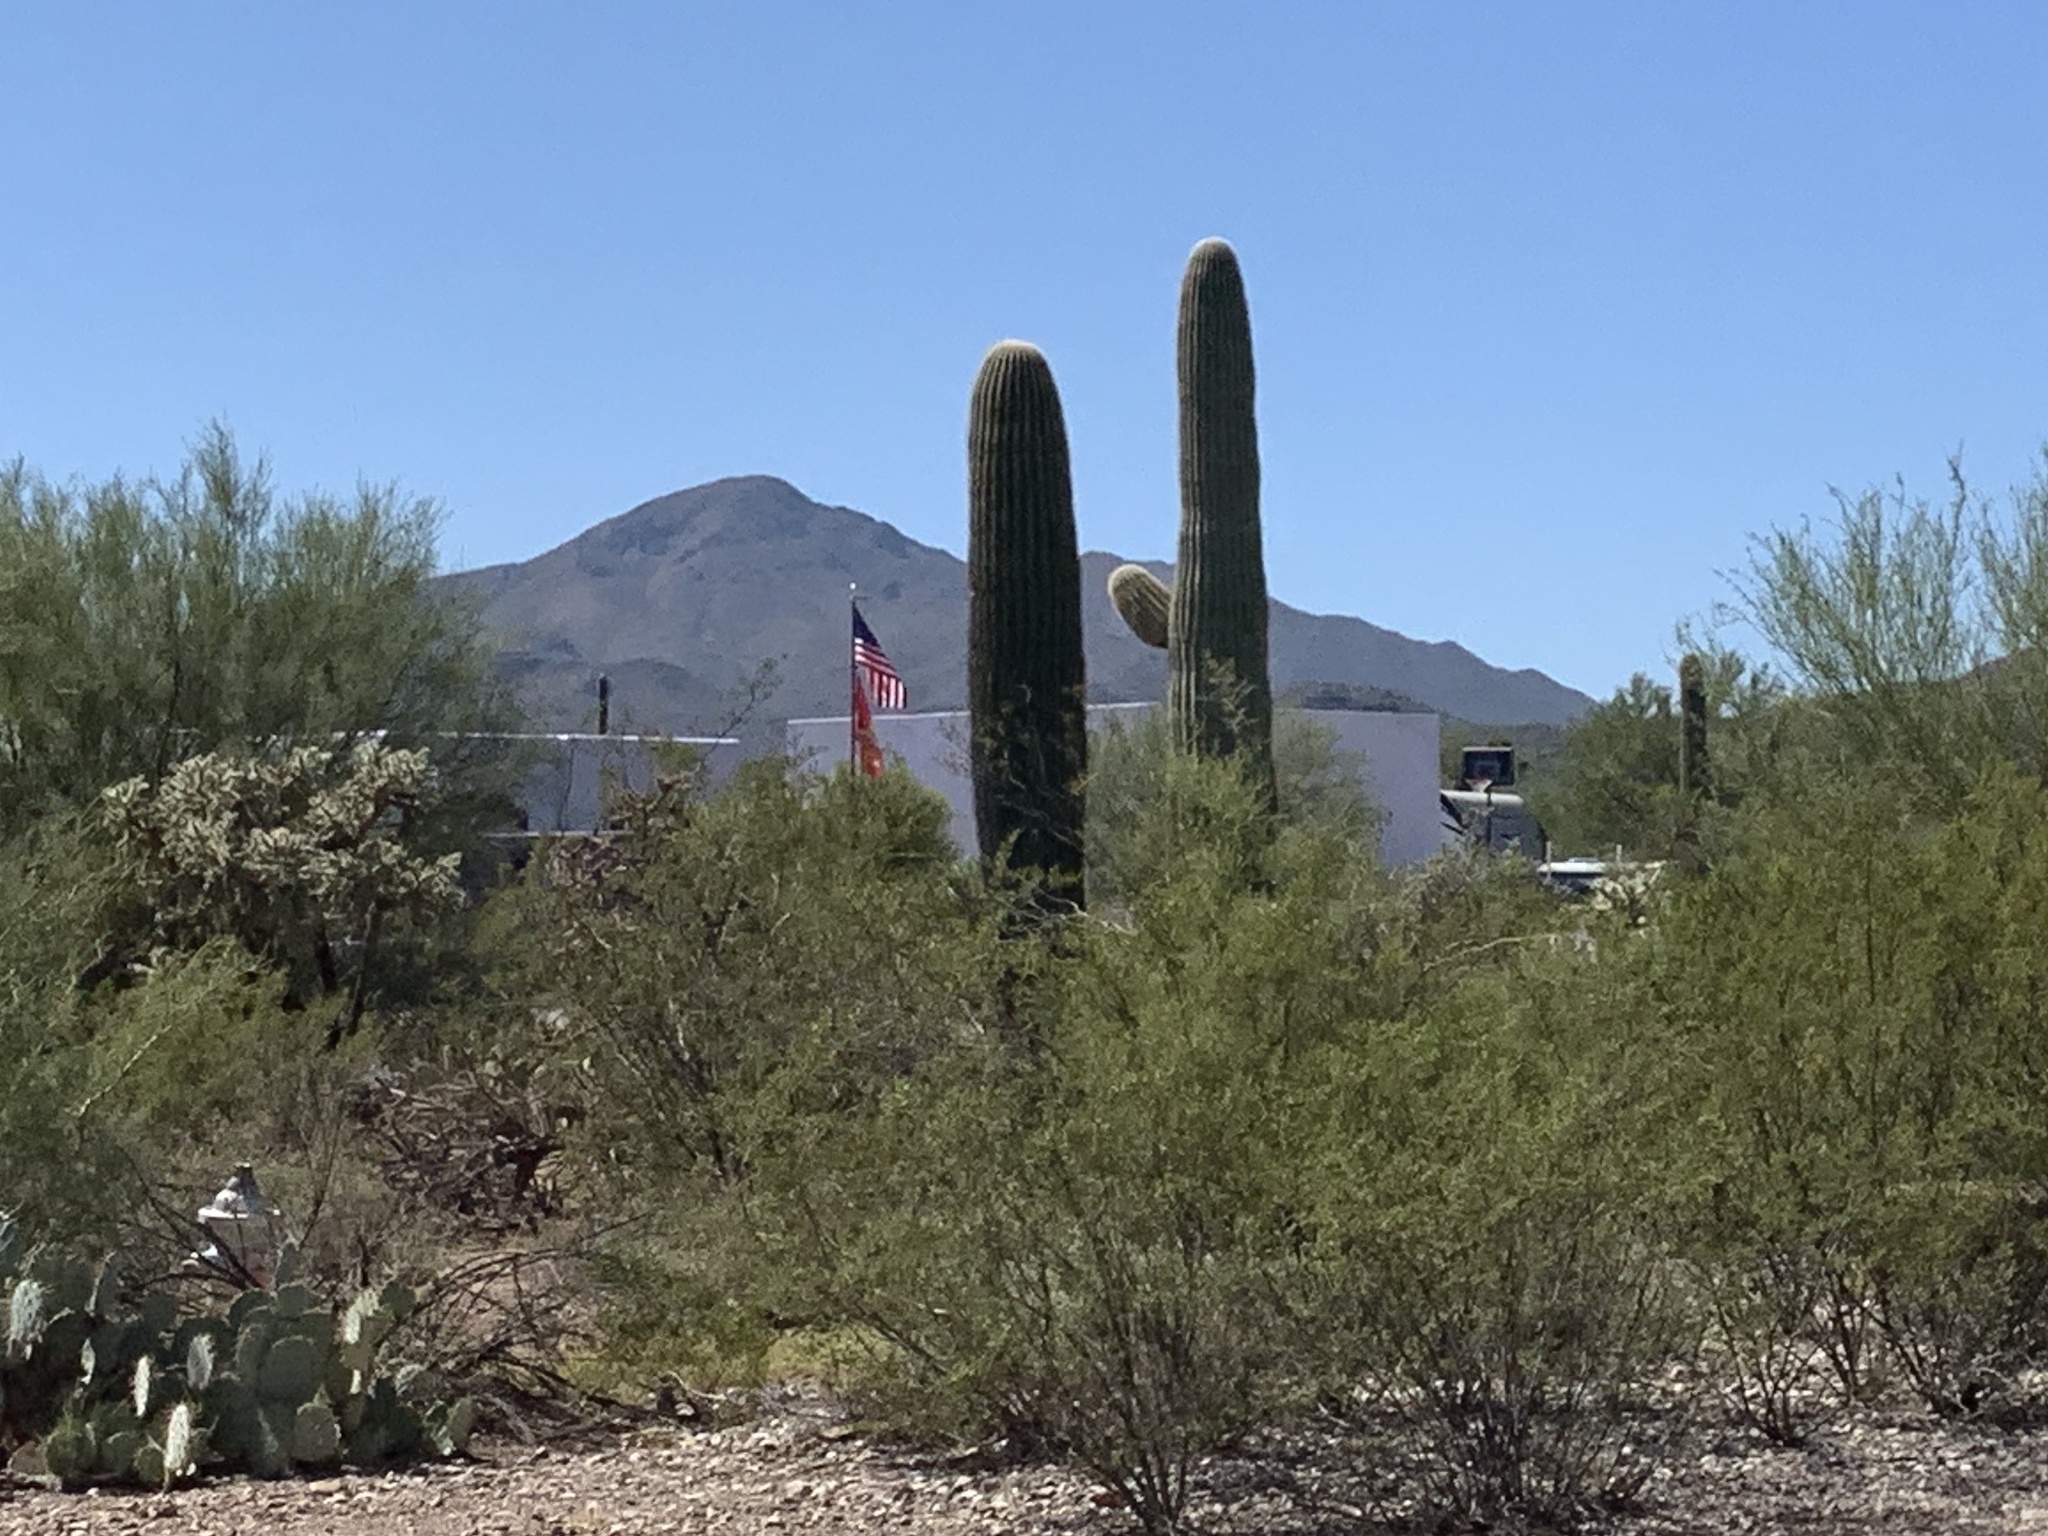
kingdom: Plantae
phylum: Tracheophyta
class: Magnoliopsida
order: Caryophyllales
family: Cactaceae
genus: Carnegiea
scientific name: Carnegiea gigantea
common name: Saguaro
